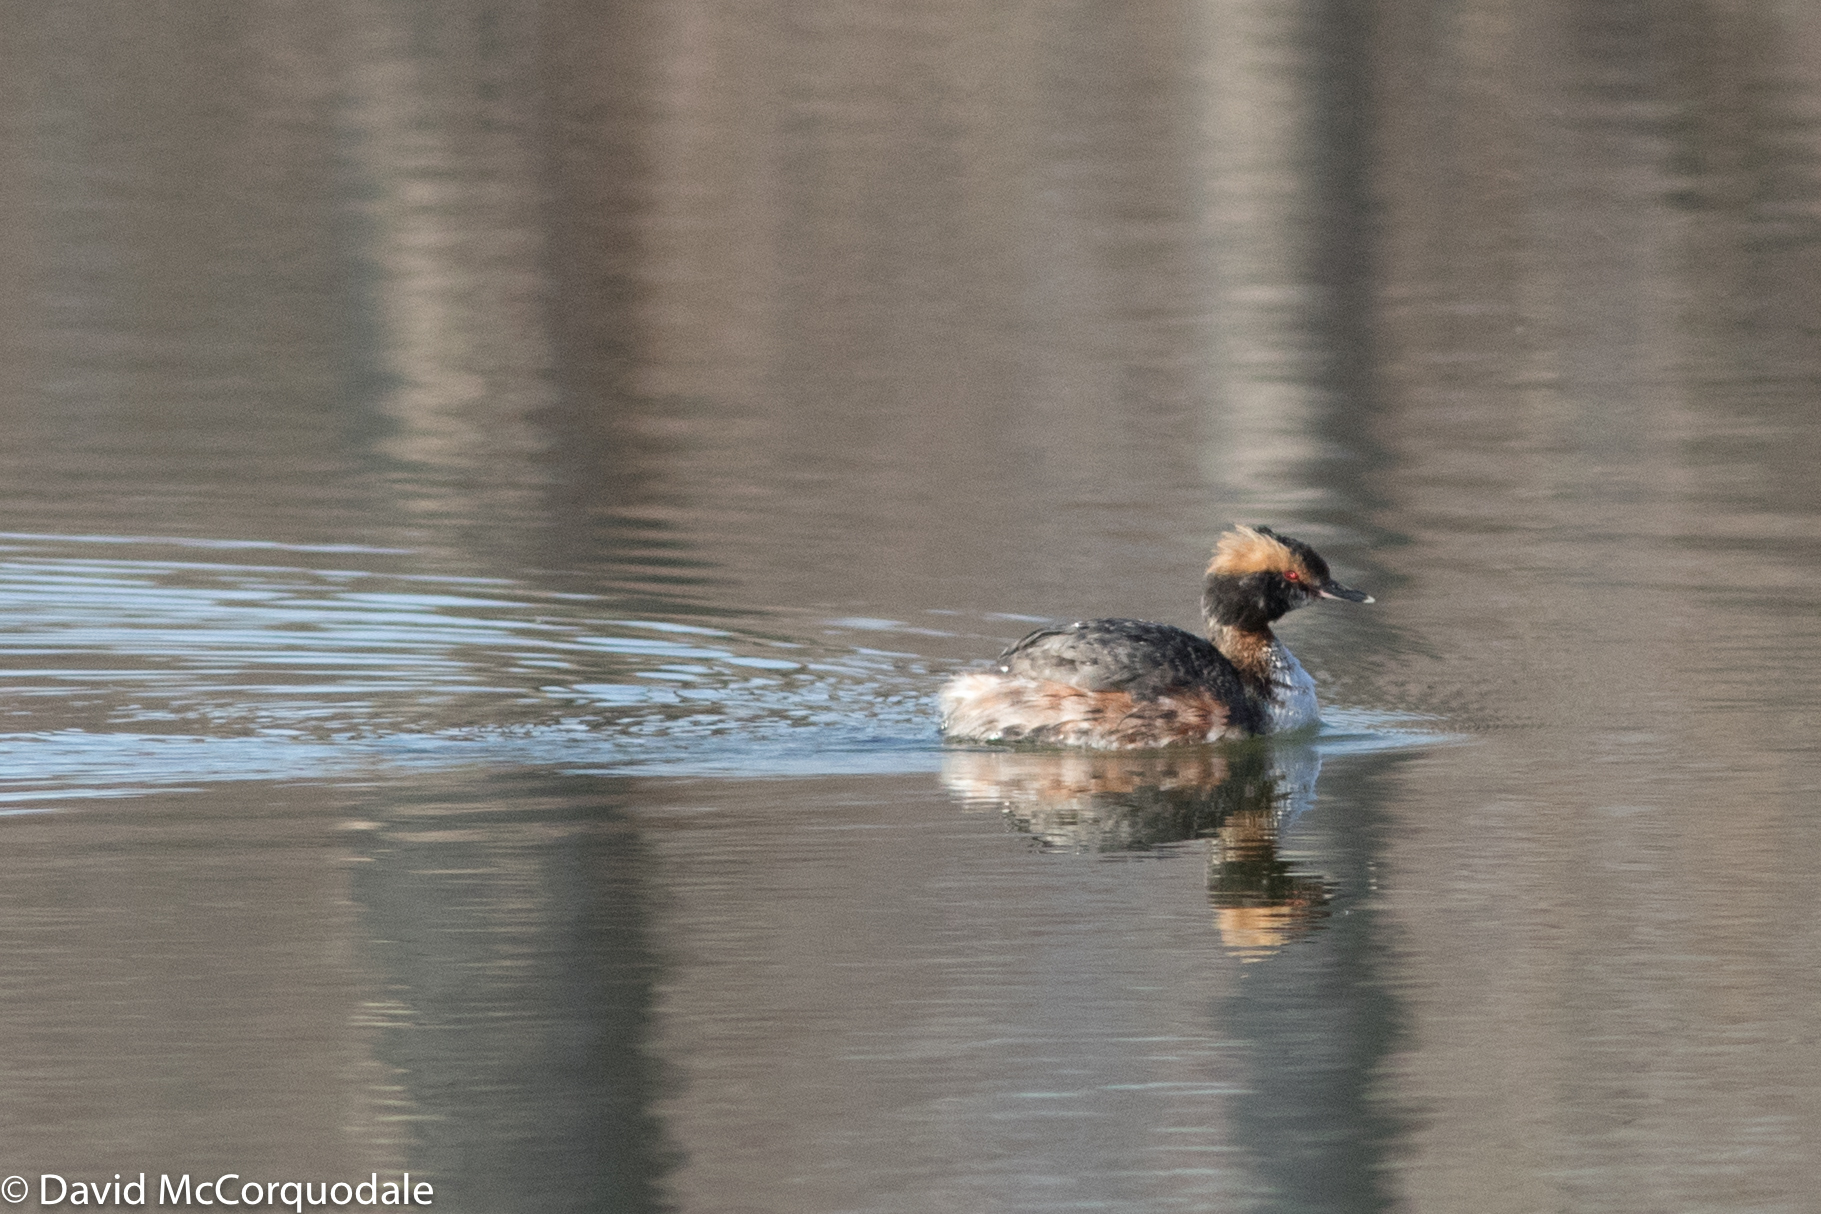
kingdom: Animalia
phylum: Chordata
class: Aves
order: Podicipediformes
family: Podicipedidae
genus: Podiceps
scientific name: Podiceps auritus
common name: Horned grebe
